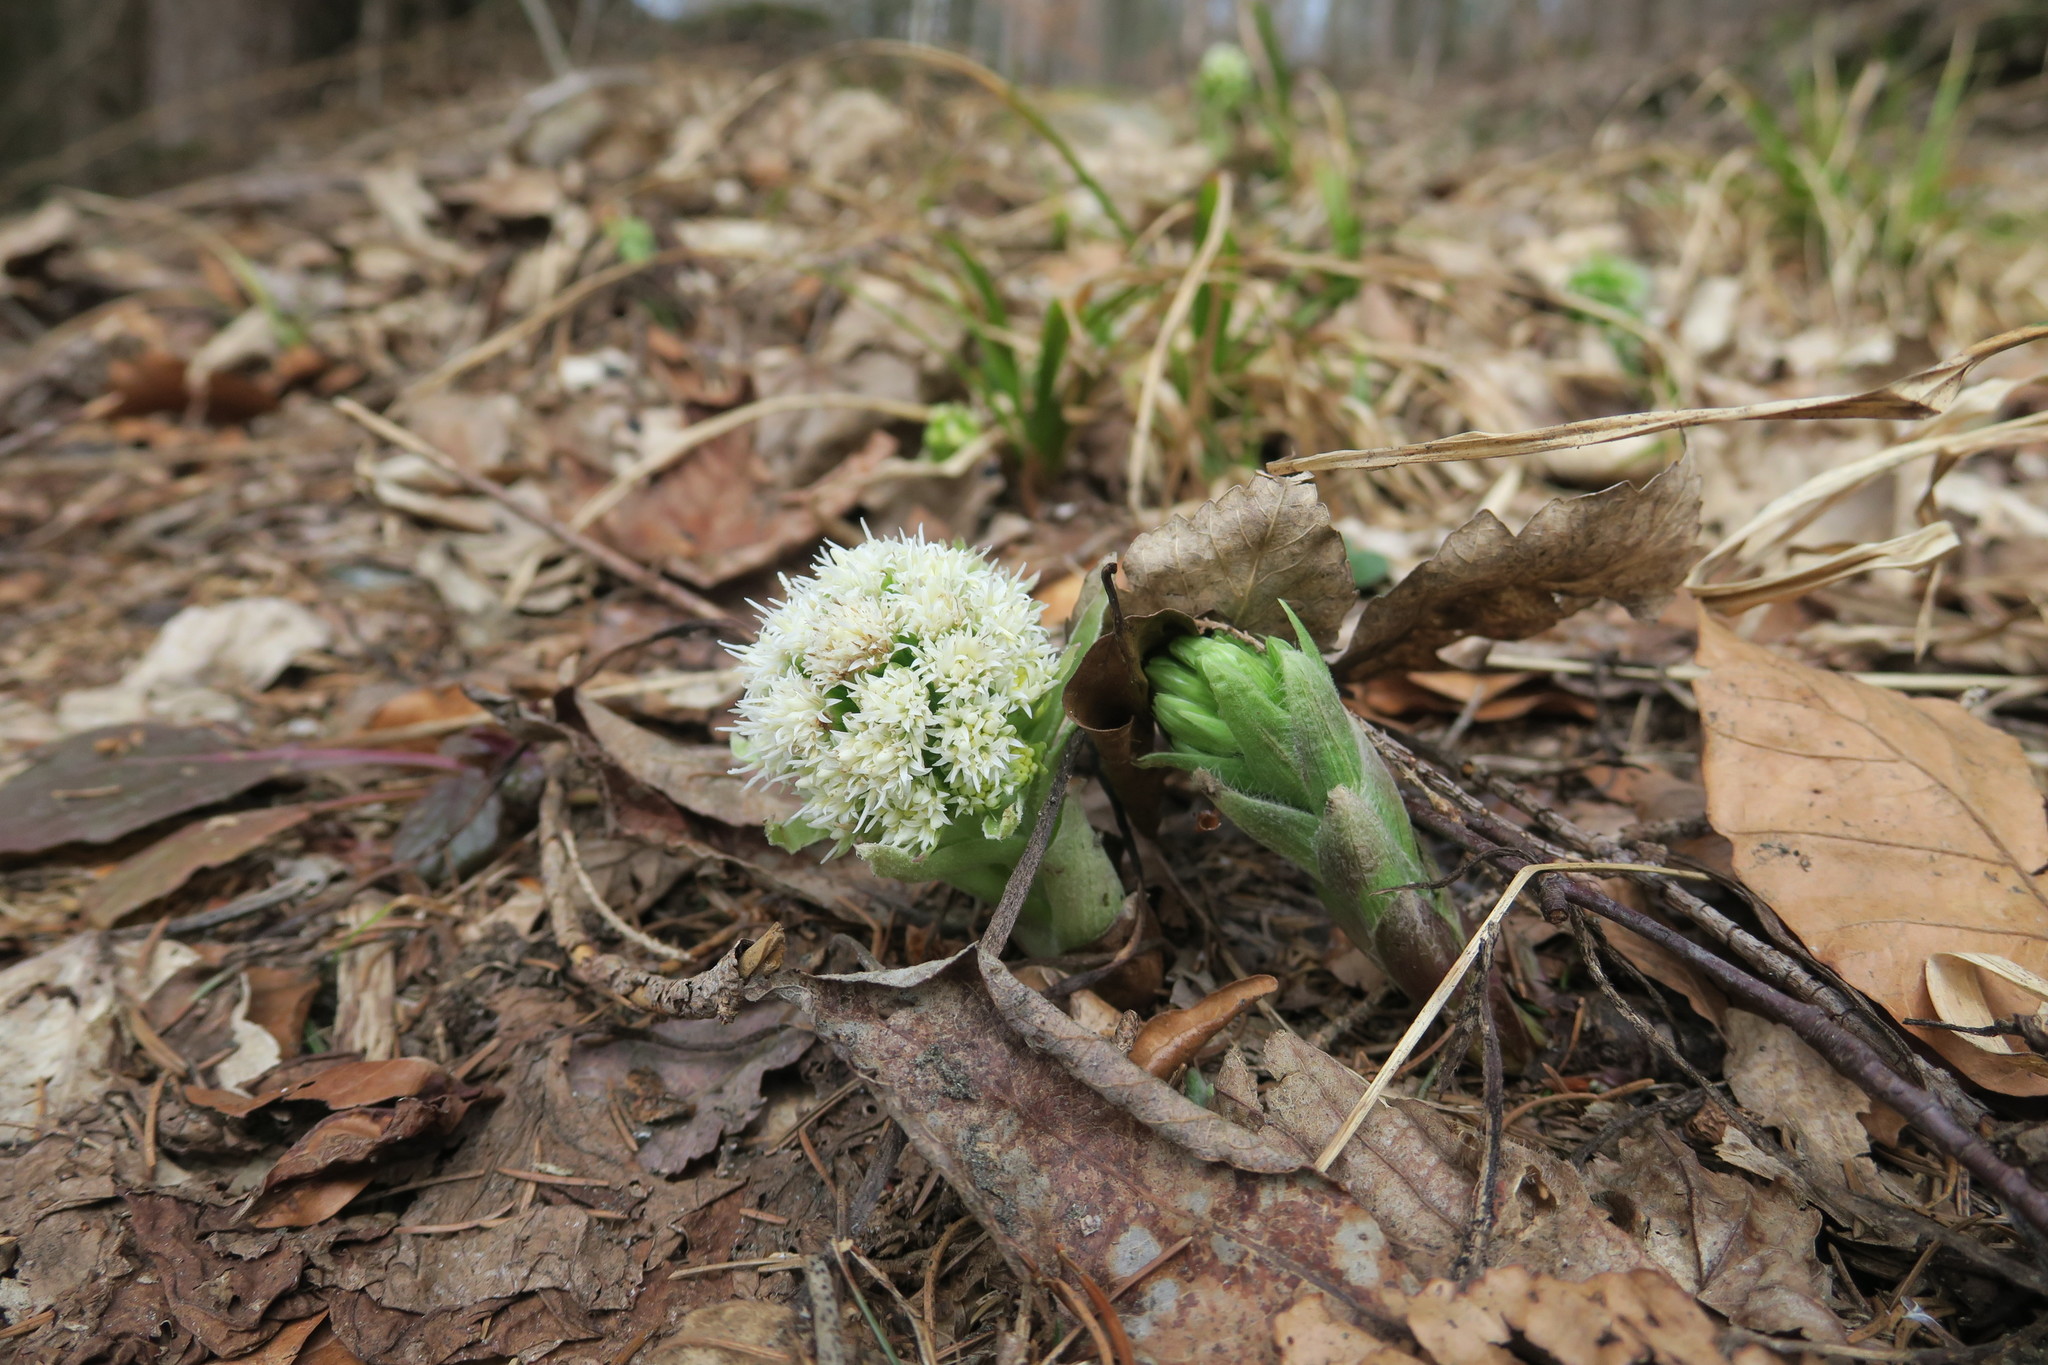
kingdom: Plantae
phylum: Tracheophyta
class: Magnoliopsida
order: Asterales
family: Asteraceae
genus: Petasites
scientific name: Petasites albus
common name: White butterbur
